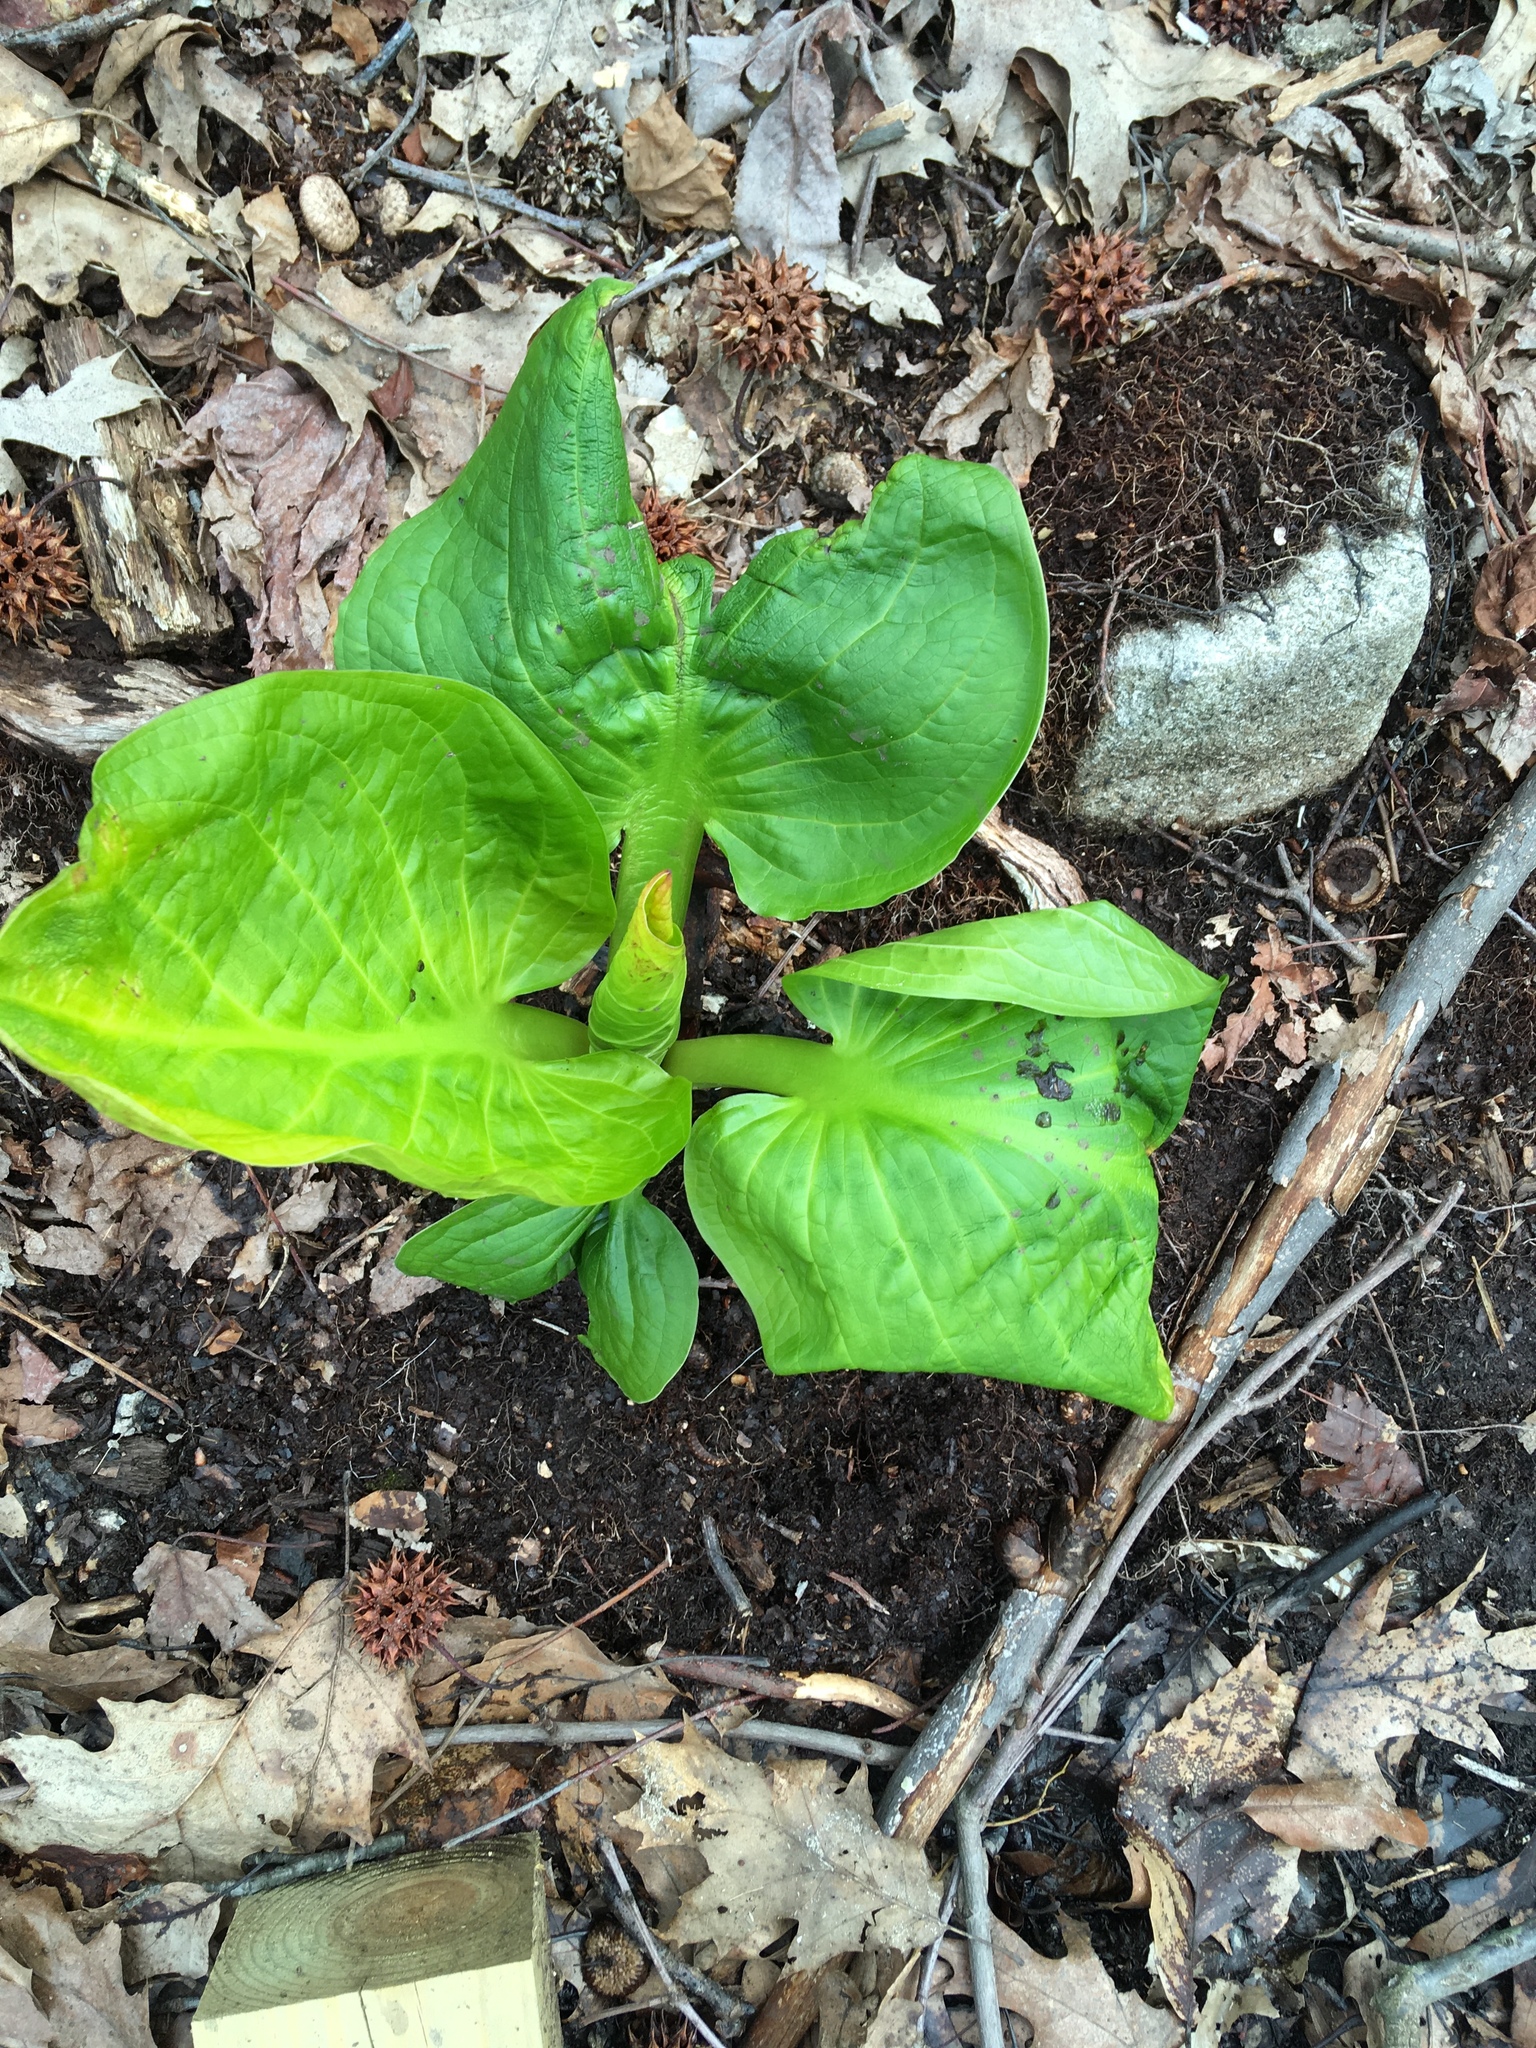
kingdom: Plantae
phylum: Tracheophyta
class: Liliopsida
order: Alismatales
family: Araceae
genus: Symplocarpus
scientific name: Symplocarpus foetidus
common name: Eastern skunk cabbage
